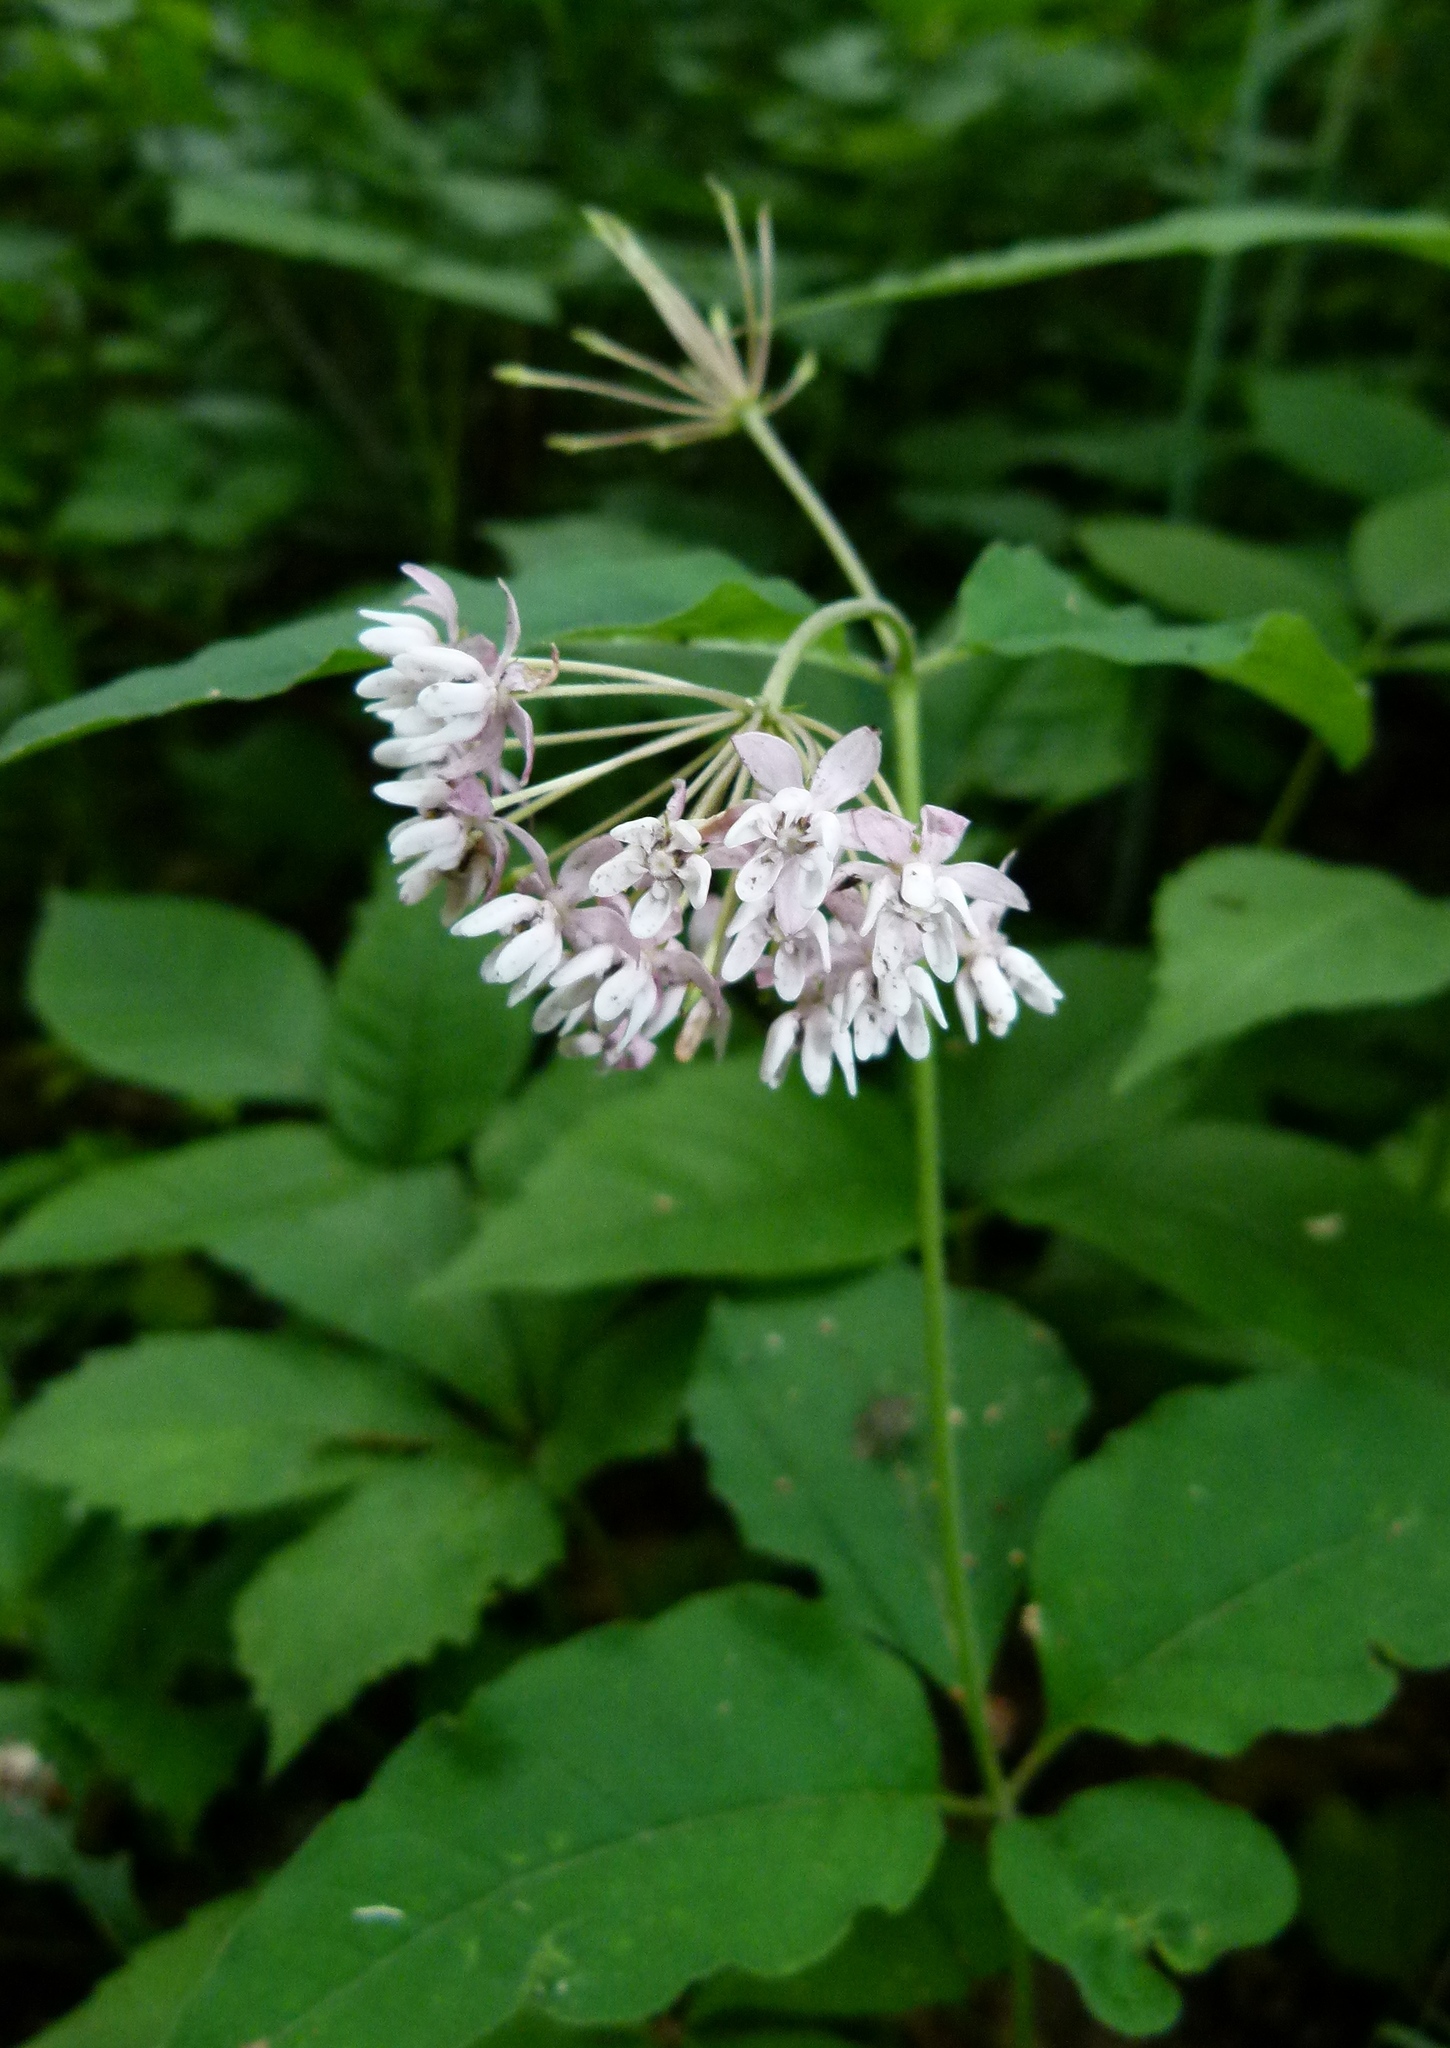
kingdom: Plantae
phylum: Tracheophyta
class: Magnoliopsida
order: Gentianales
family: Apocynaceae
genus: Asclepias
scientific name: Asclepias quadrifolia
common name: Whorled milkweed
